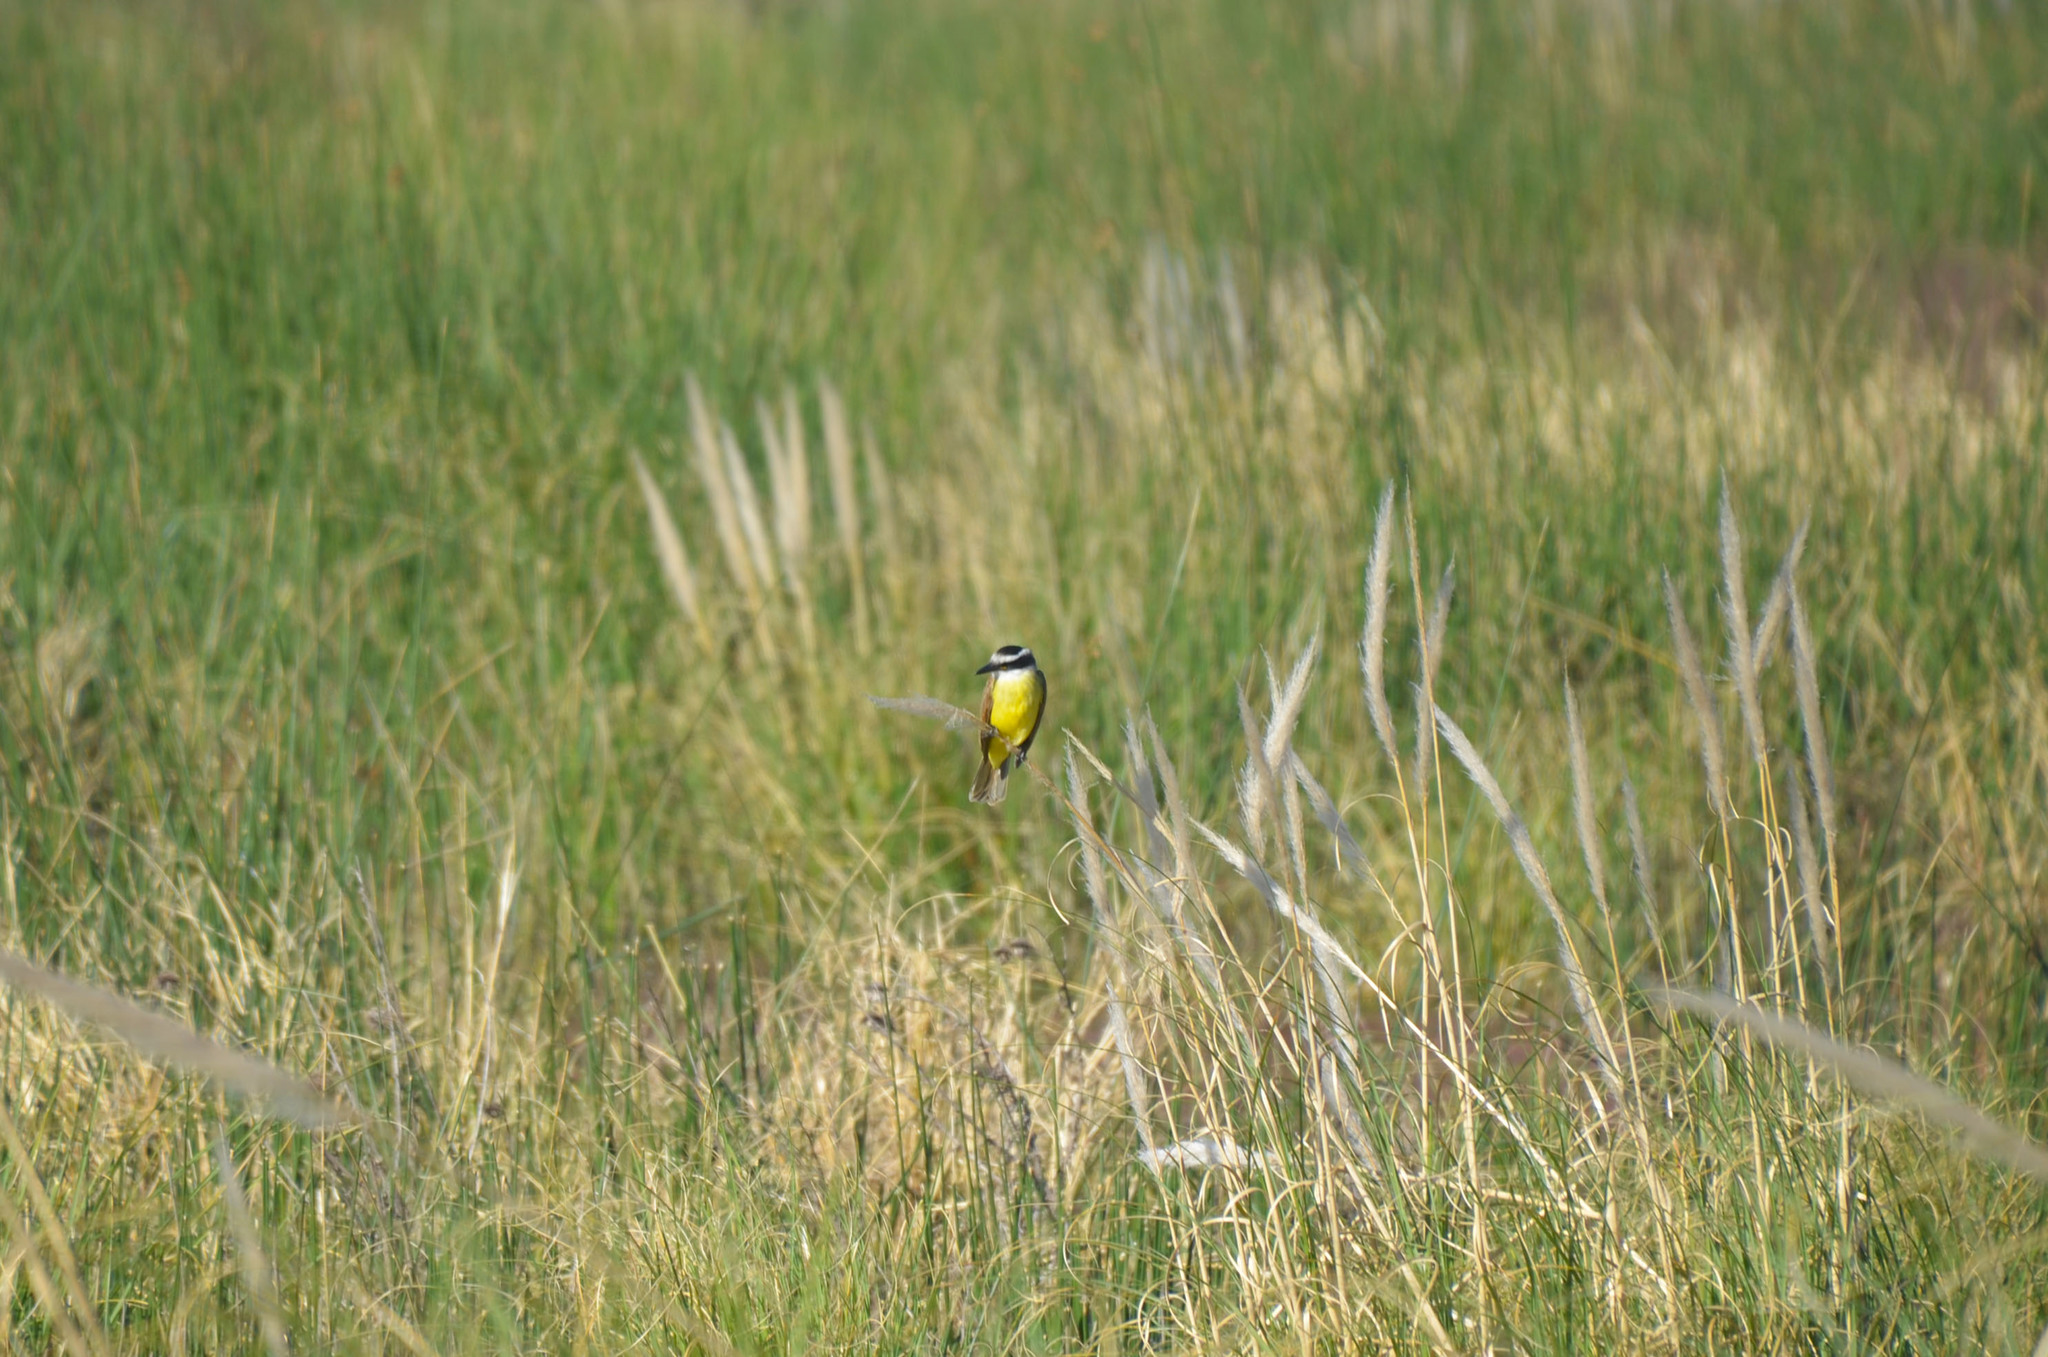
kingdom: Animalia
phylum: Chordata
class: Aves
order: Passeriformes
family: Tyrannidae
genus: Pitangus
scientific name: Pitangus sulphuratus
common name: Great kiskadee
